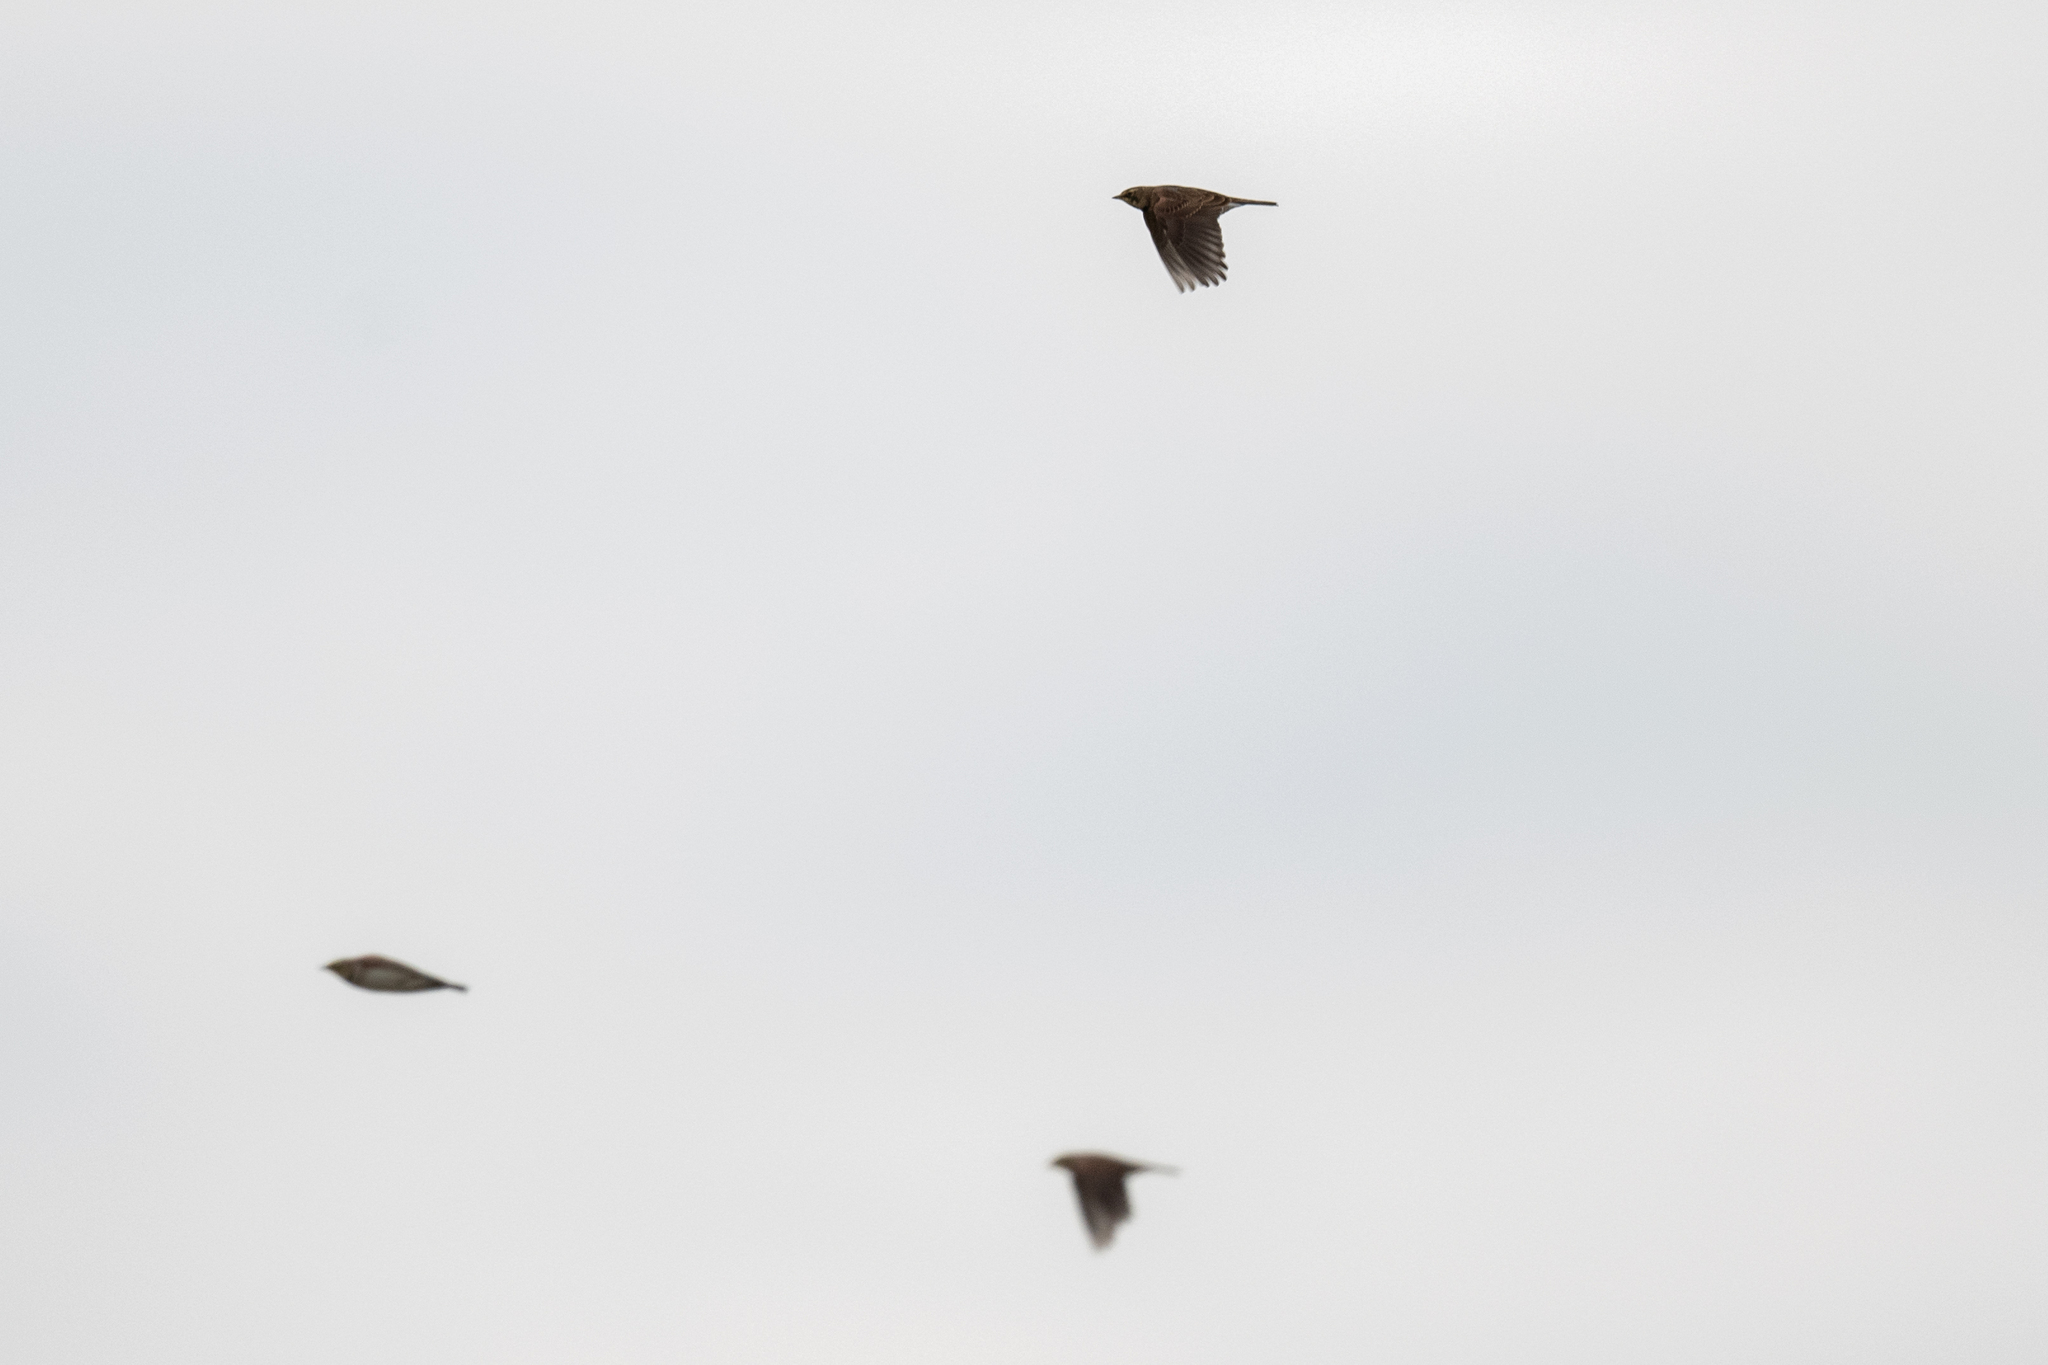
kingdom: Animalia
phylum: Chordata
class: Aves
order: Passeriformes
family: Motacillidae
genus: Anthus
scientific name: Anthus rubescens
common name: Buff-bellied pipit
